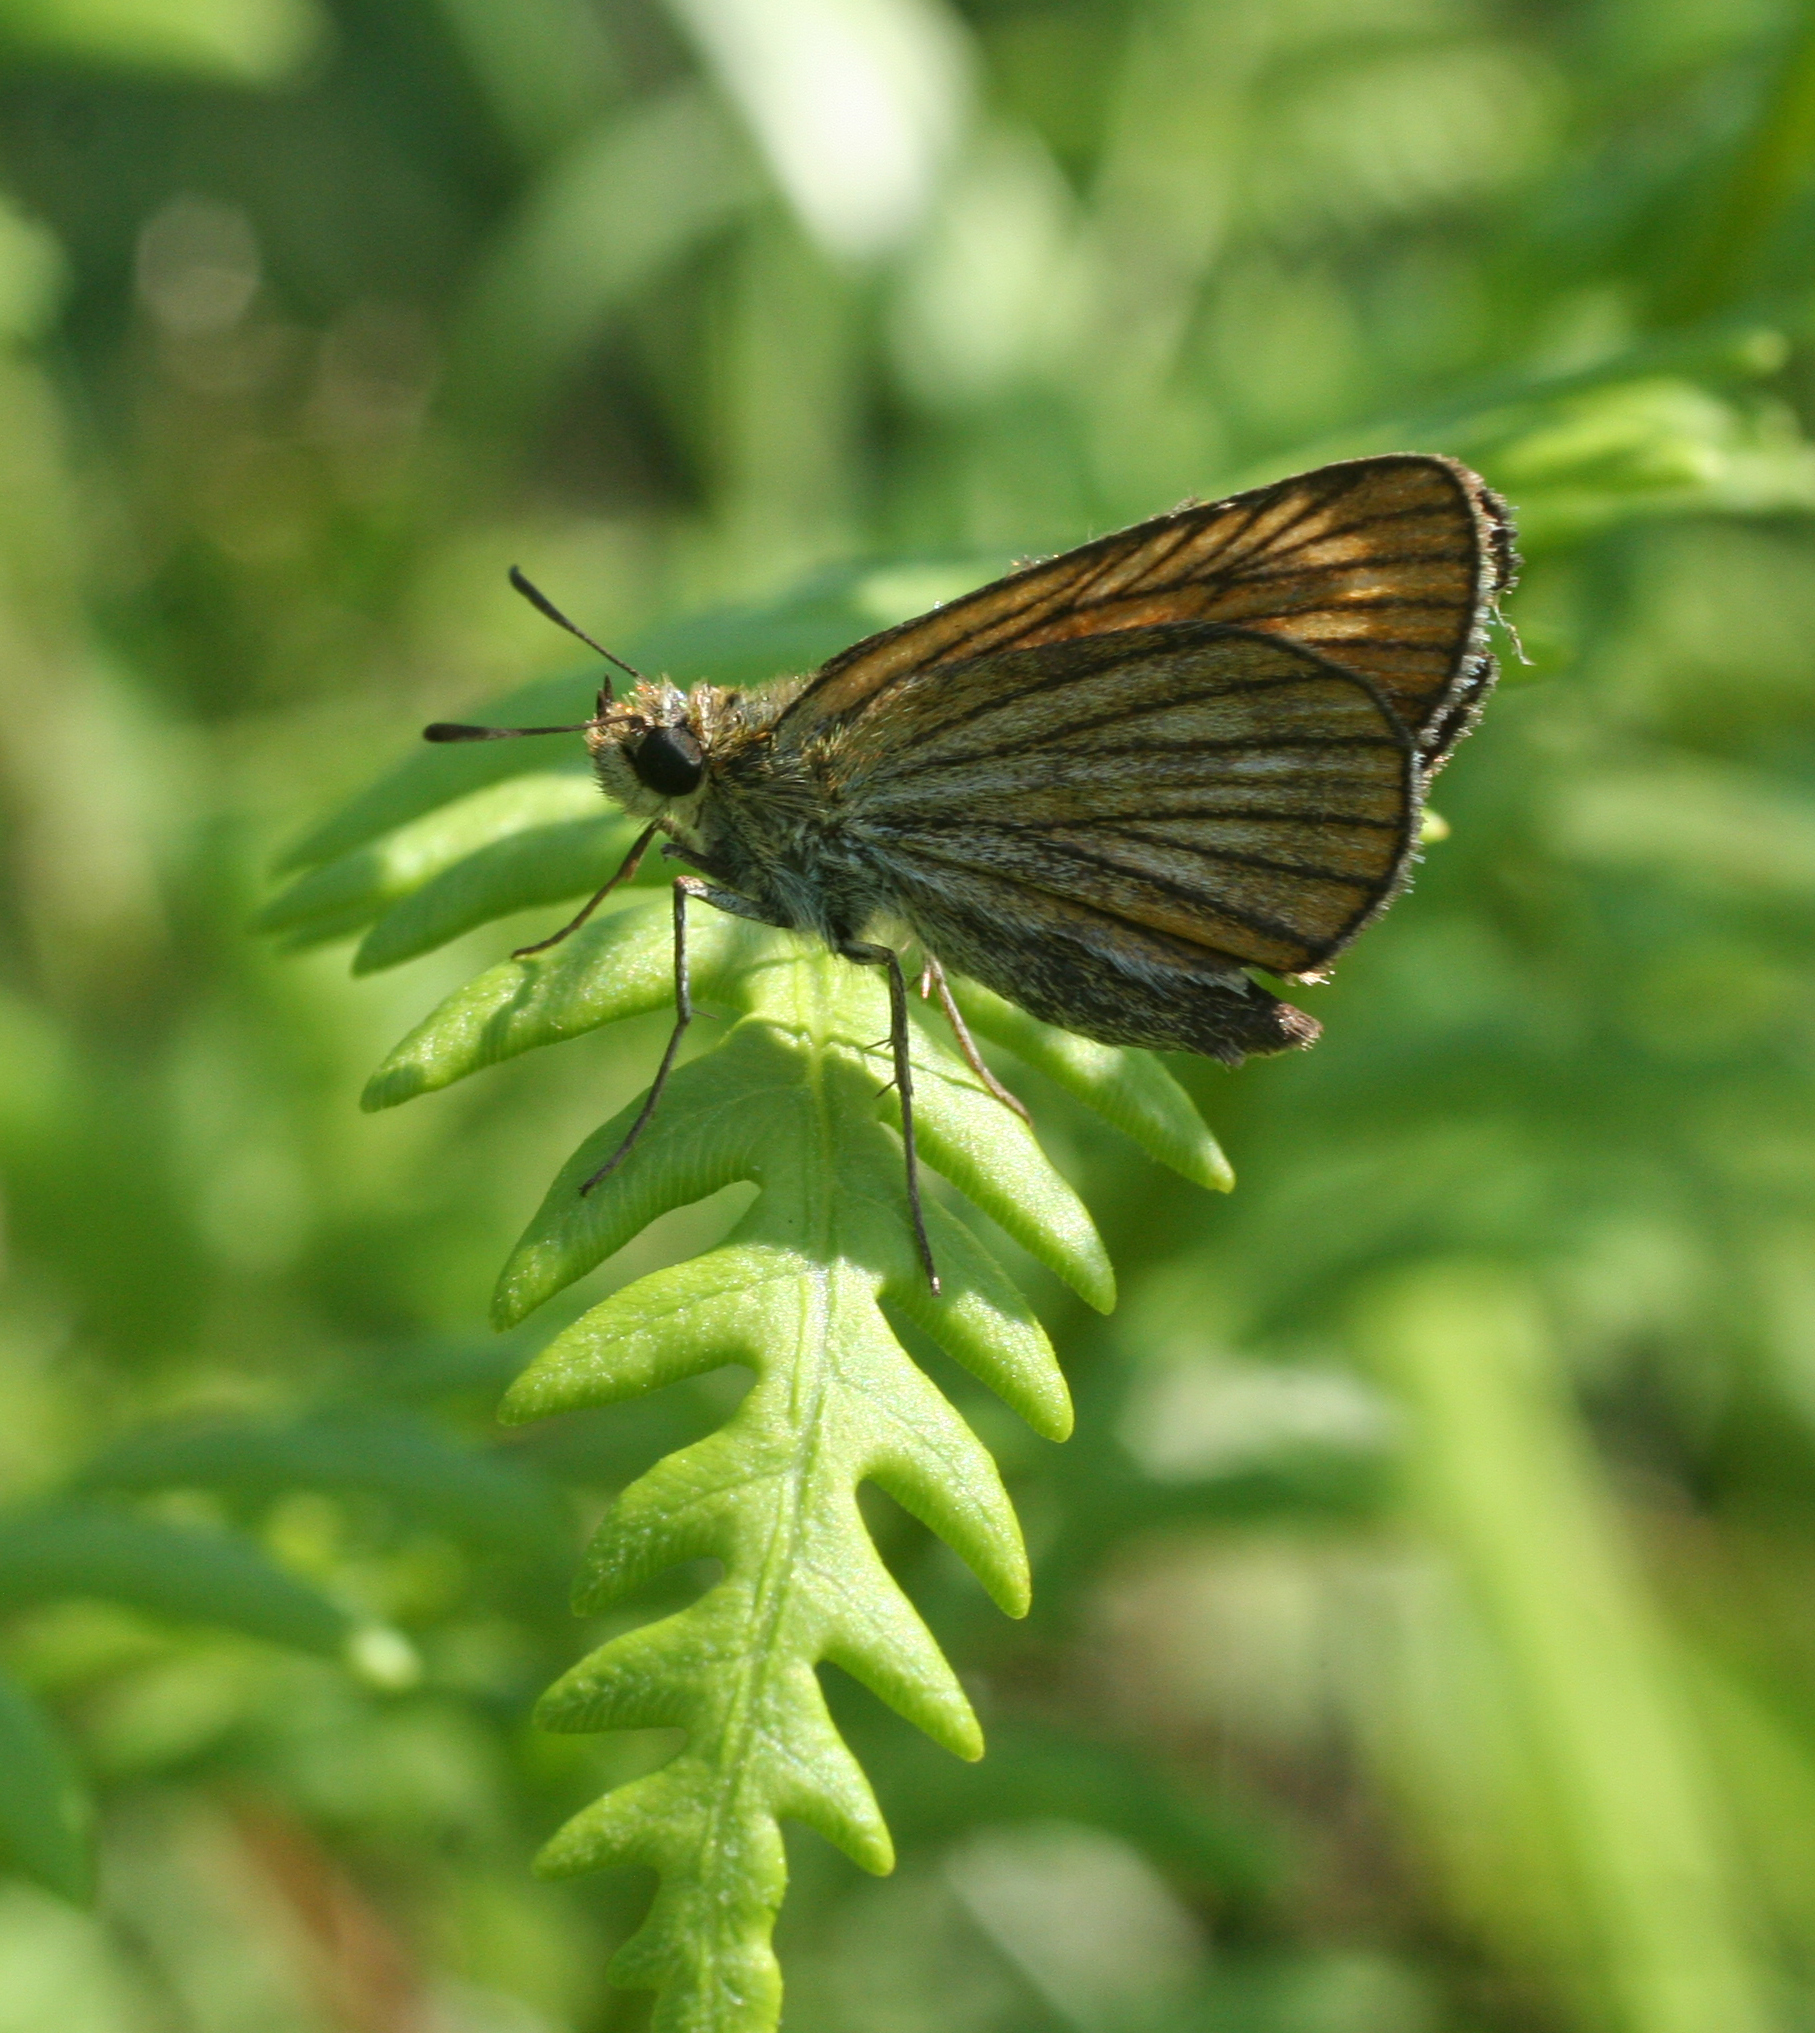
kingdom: Animalia
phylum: Arthropoda
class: Insecta
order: Lepidoptera
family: Hesperiidae
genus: Thymelicus
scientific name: Thymelicus sylvatica
